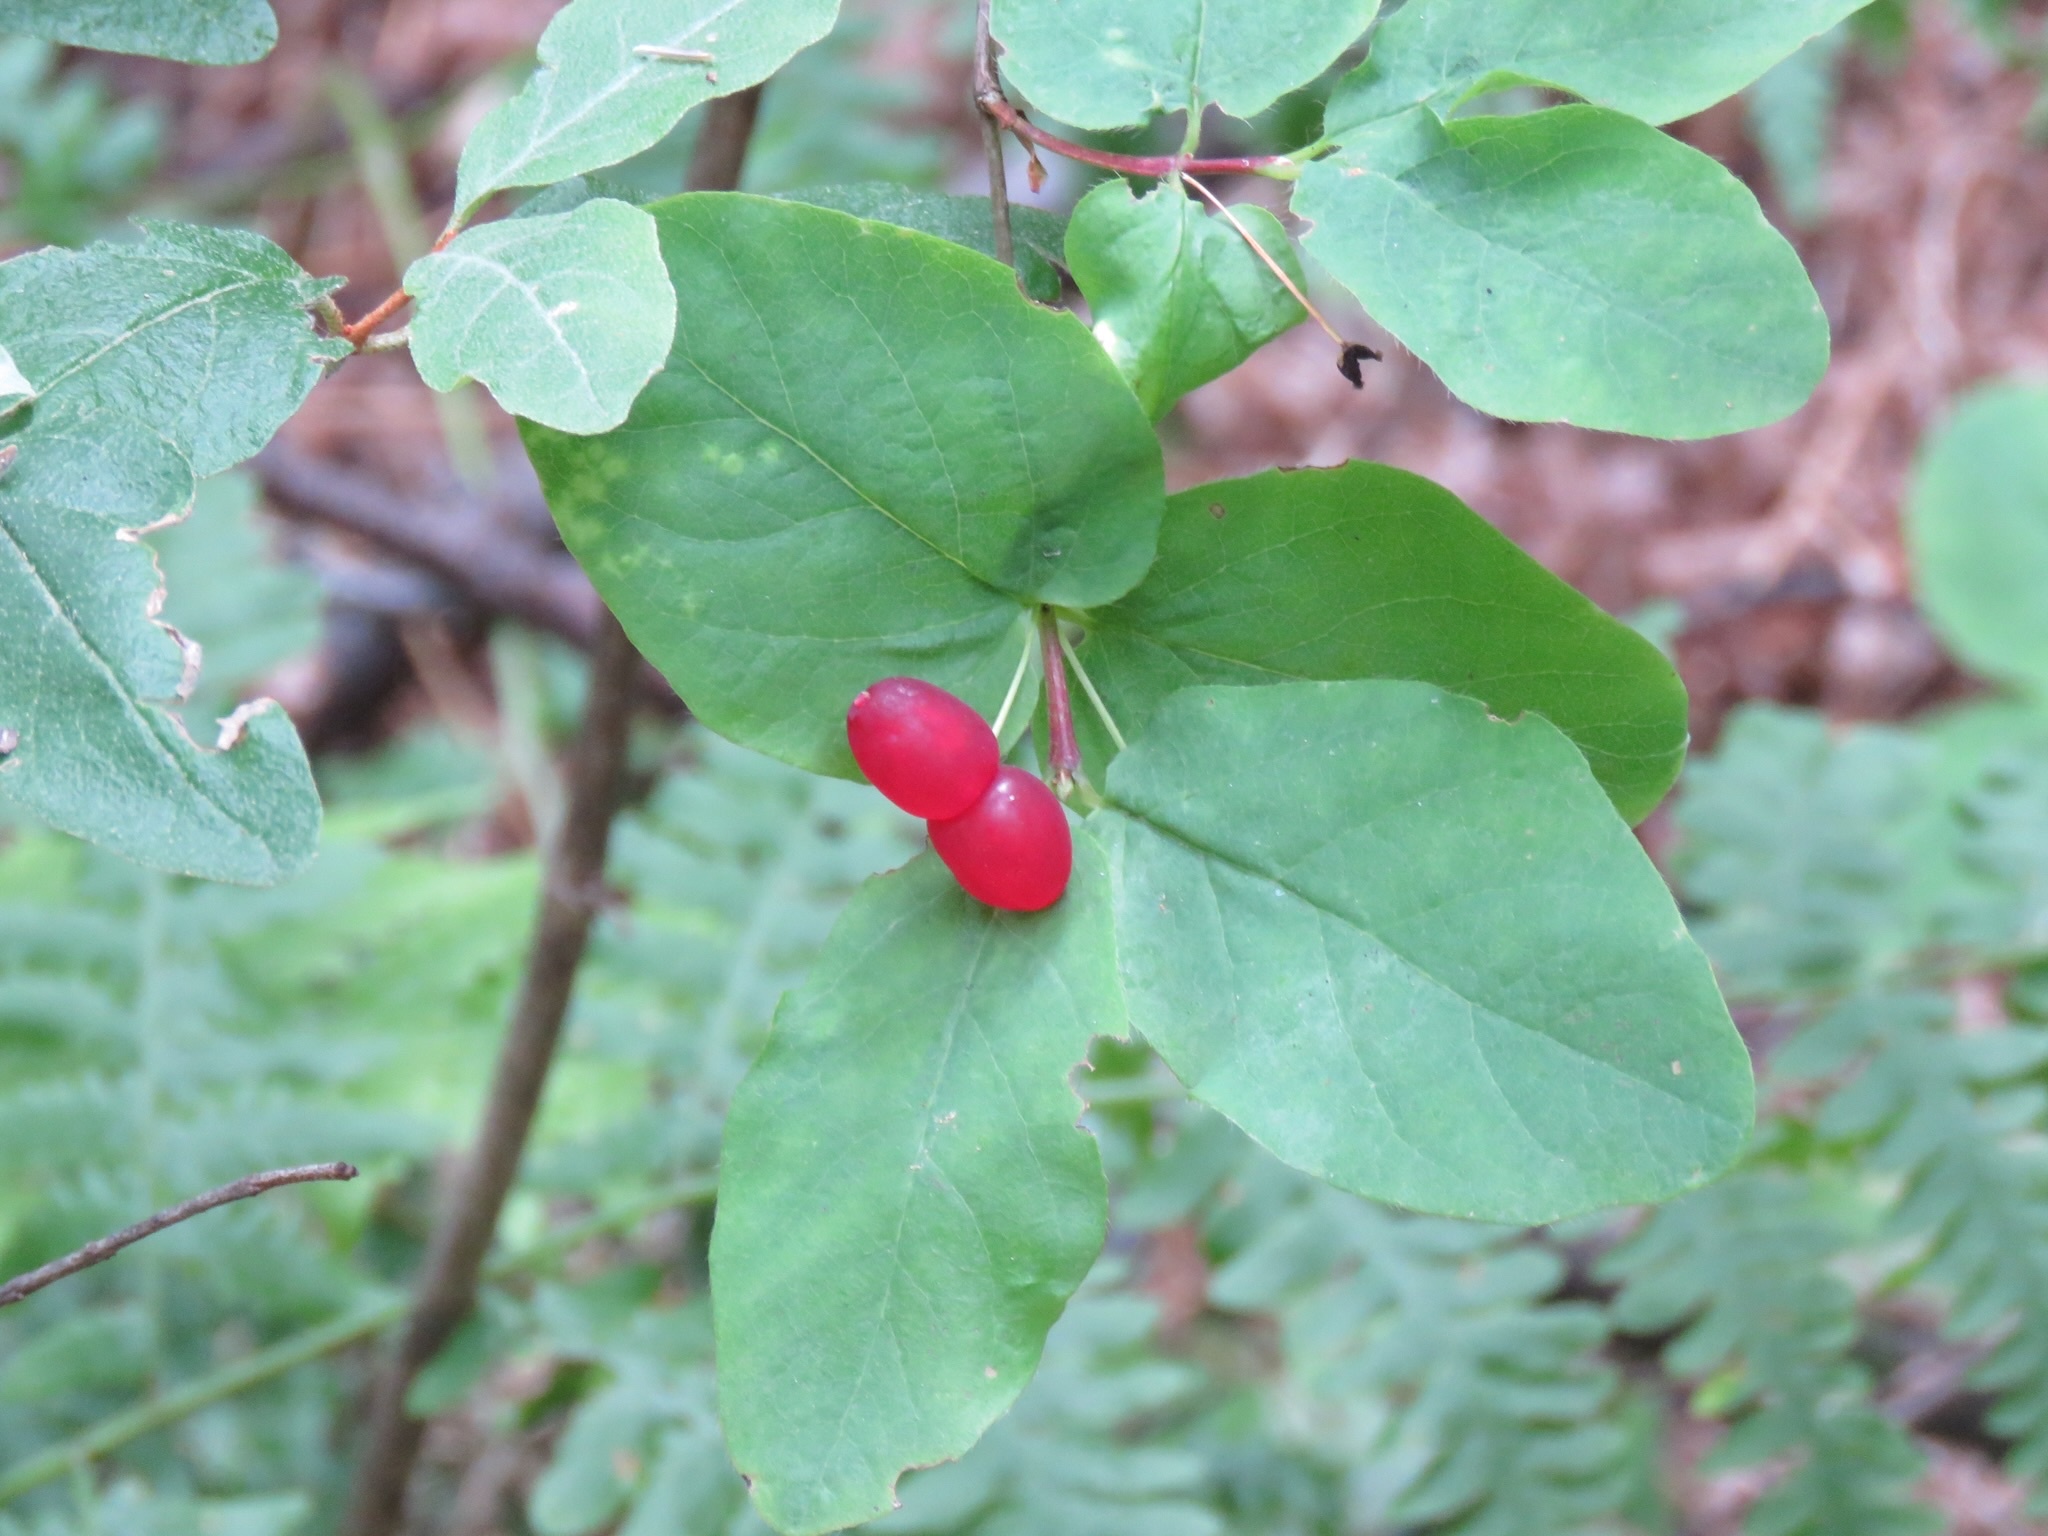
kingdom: Plantae
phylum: Tracheophyta
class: Magnoliopsida
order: Dipsacales
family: Caprifoliaceae
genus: Lonicera
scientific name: Lonicera utahensis
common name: Utah honeysuckle
